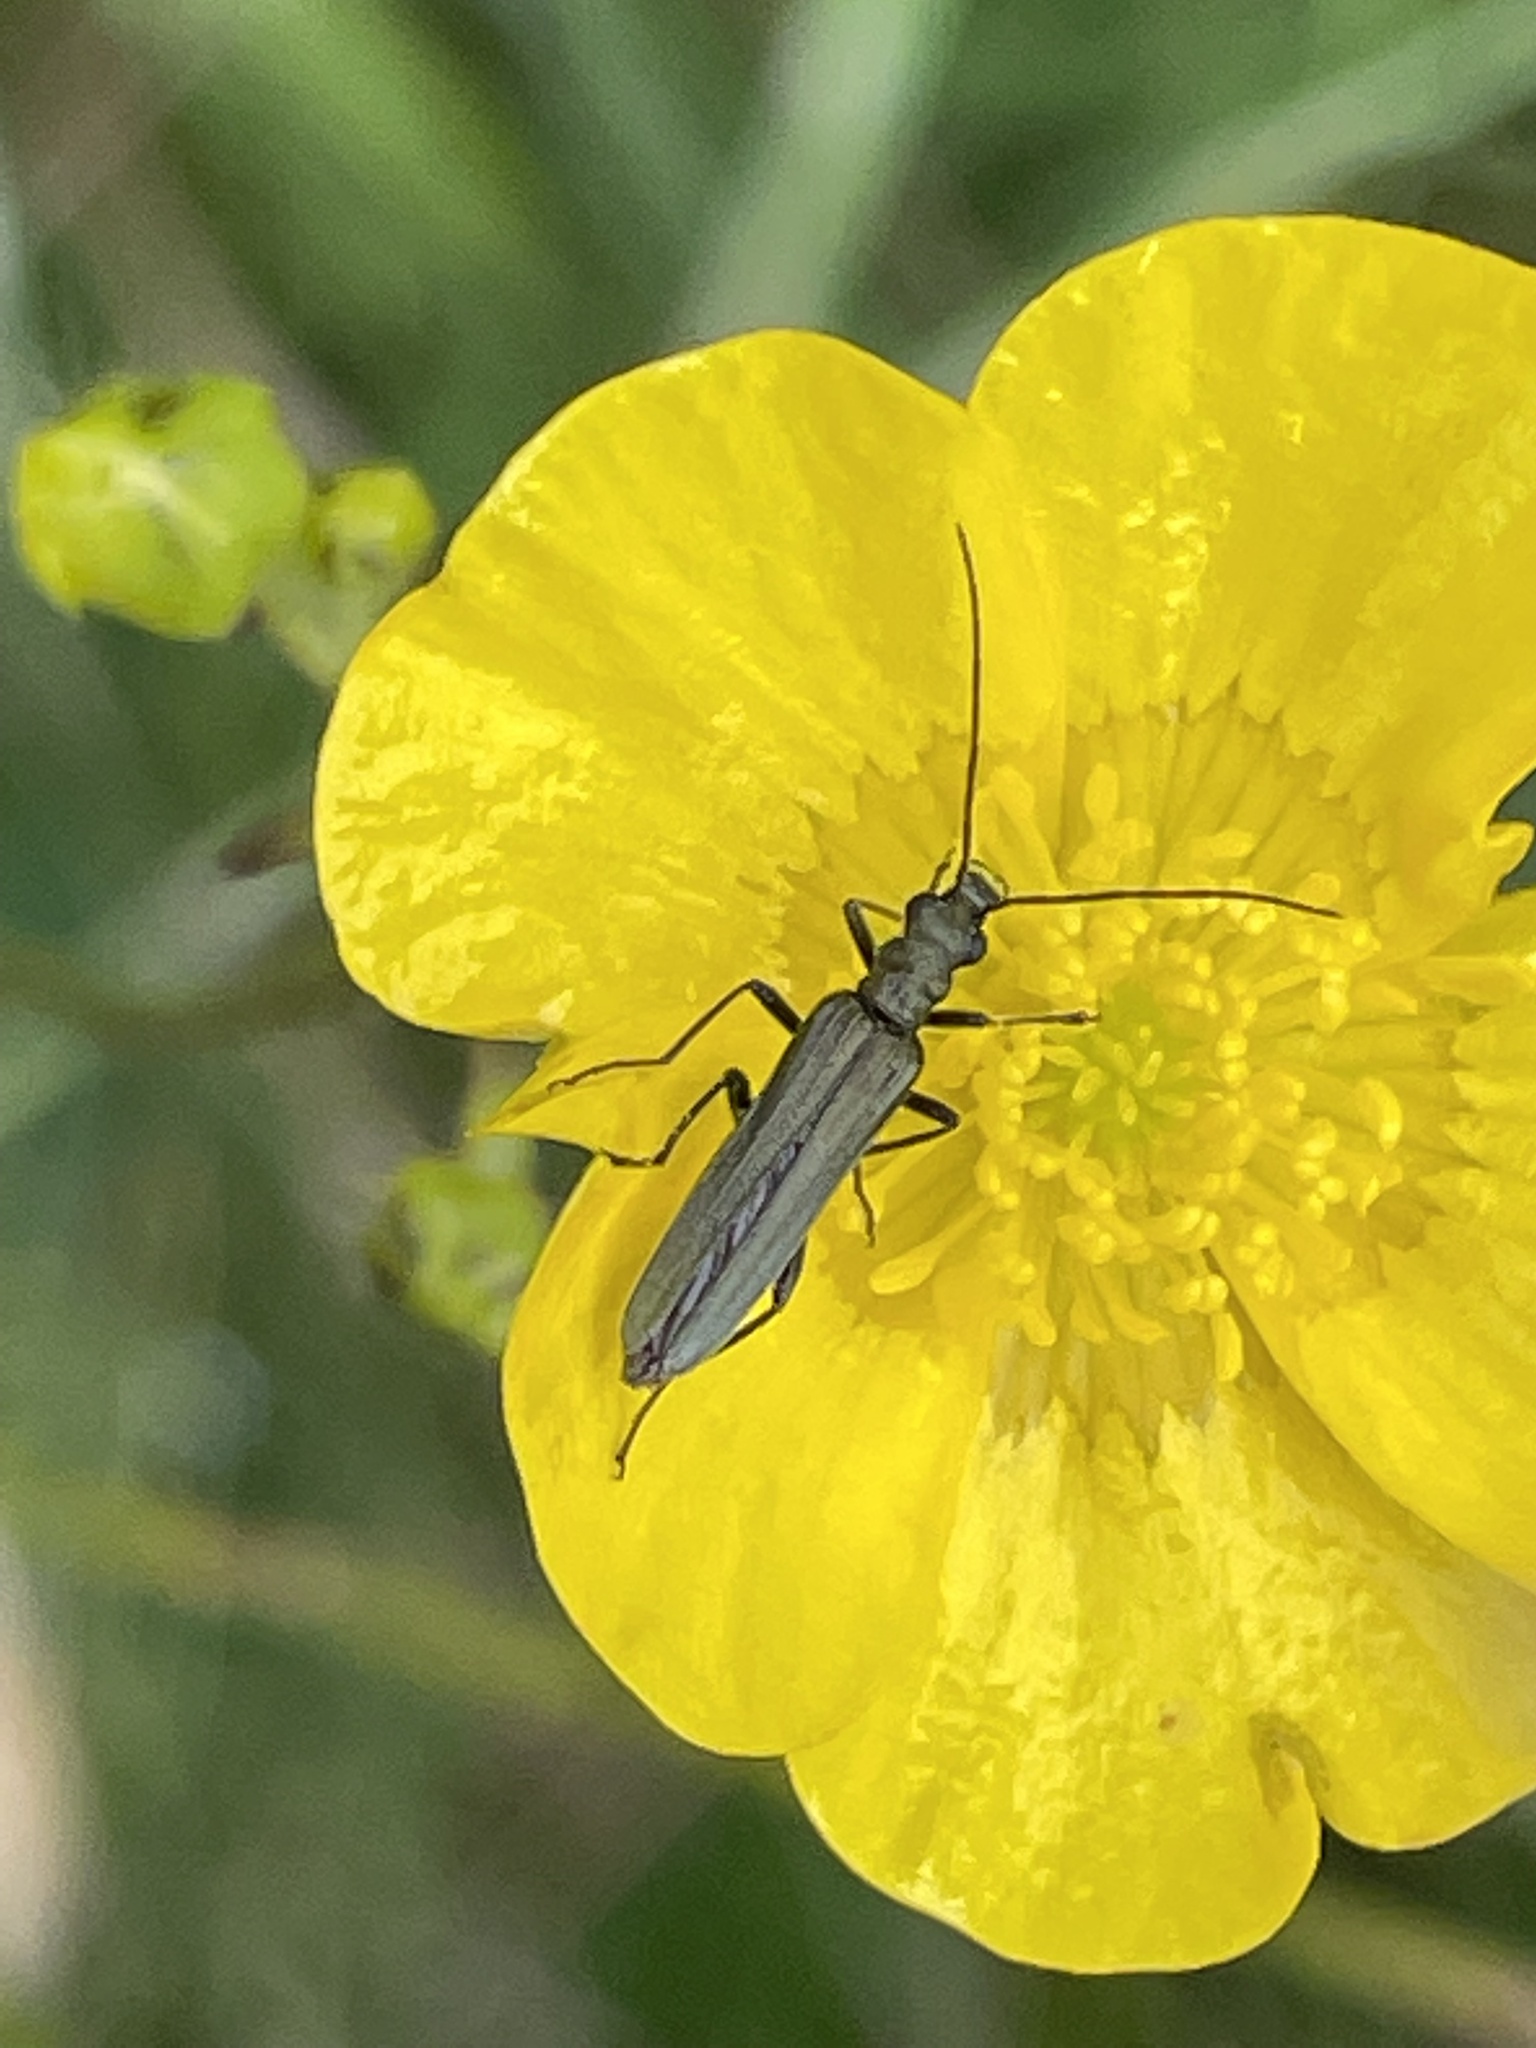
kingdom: Animalia
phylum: Arthropoda
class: Insecta
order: Coleoptera
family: Oedemeridae
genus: Oedemera
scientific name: Oedemera lurida
